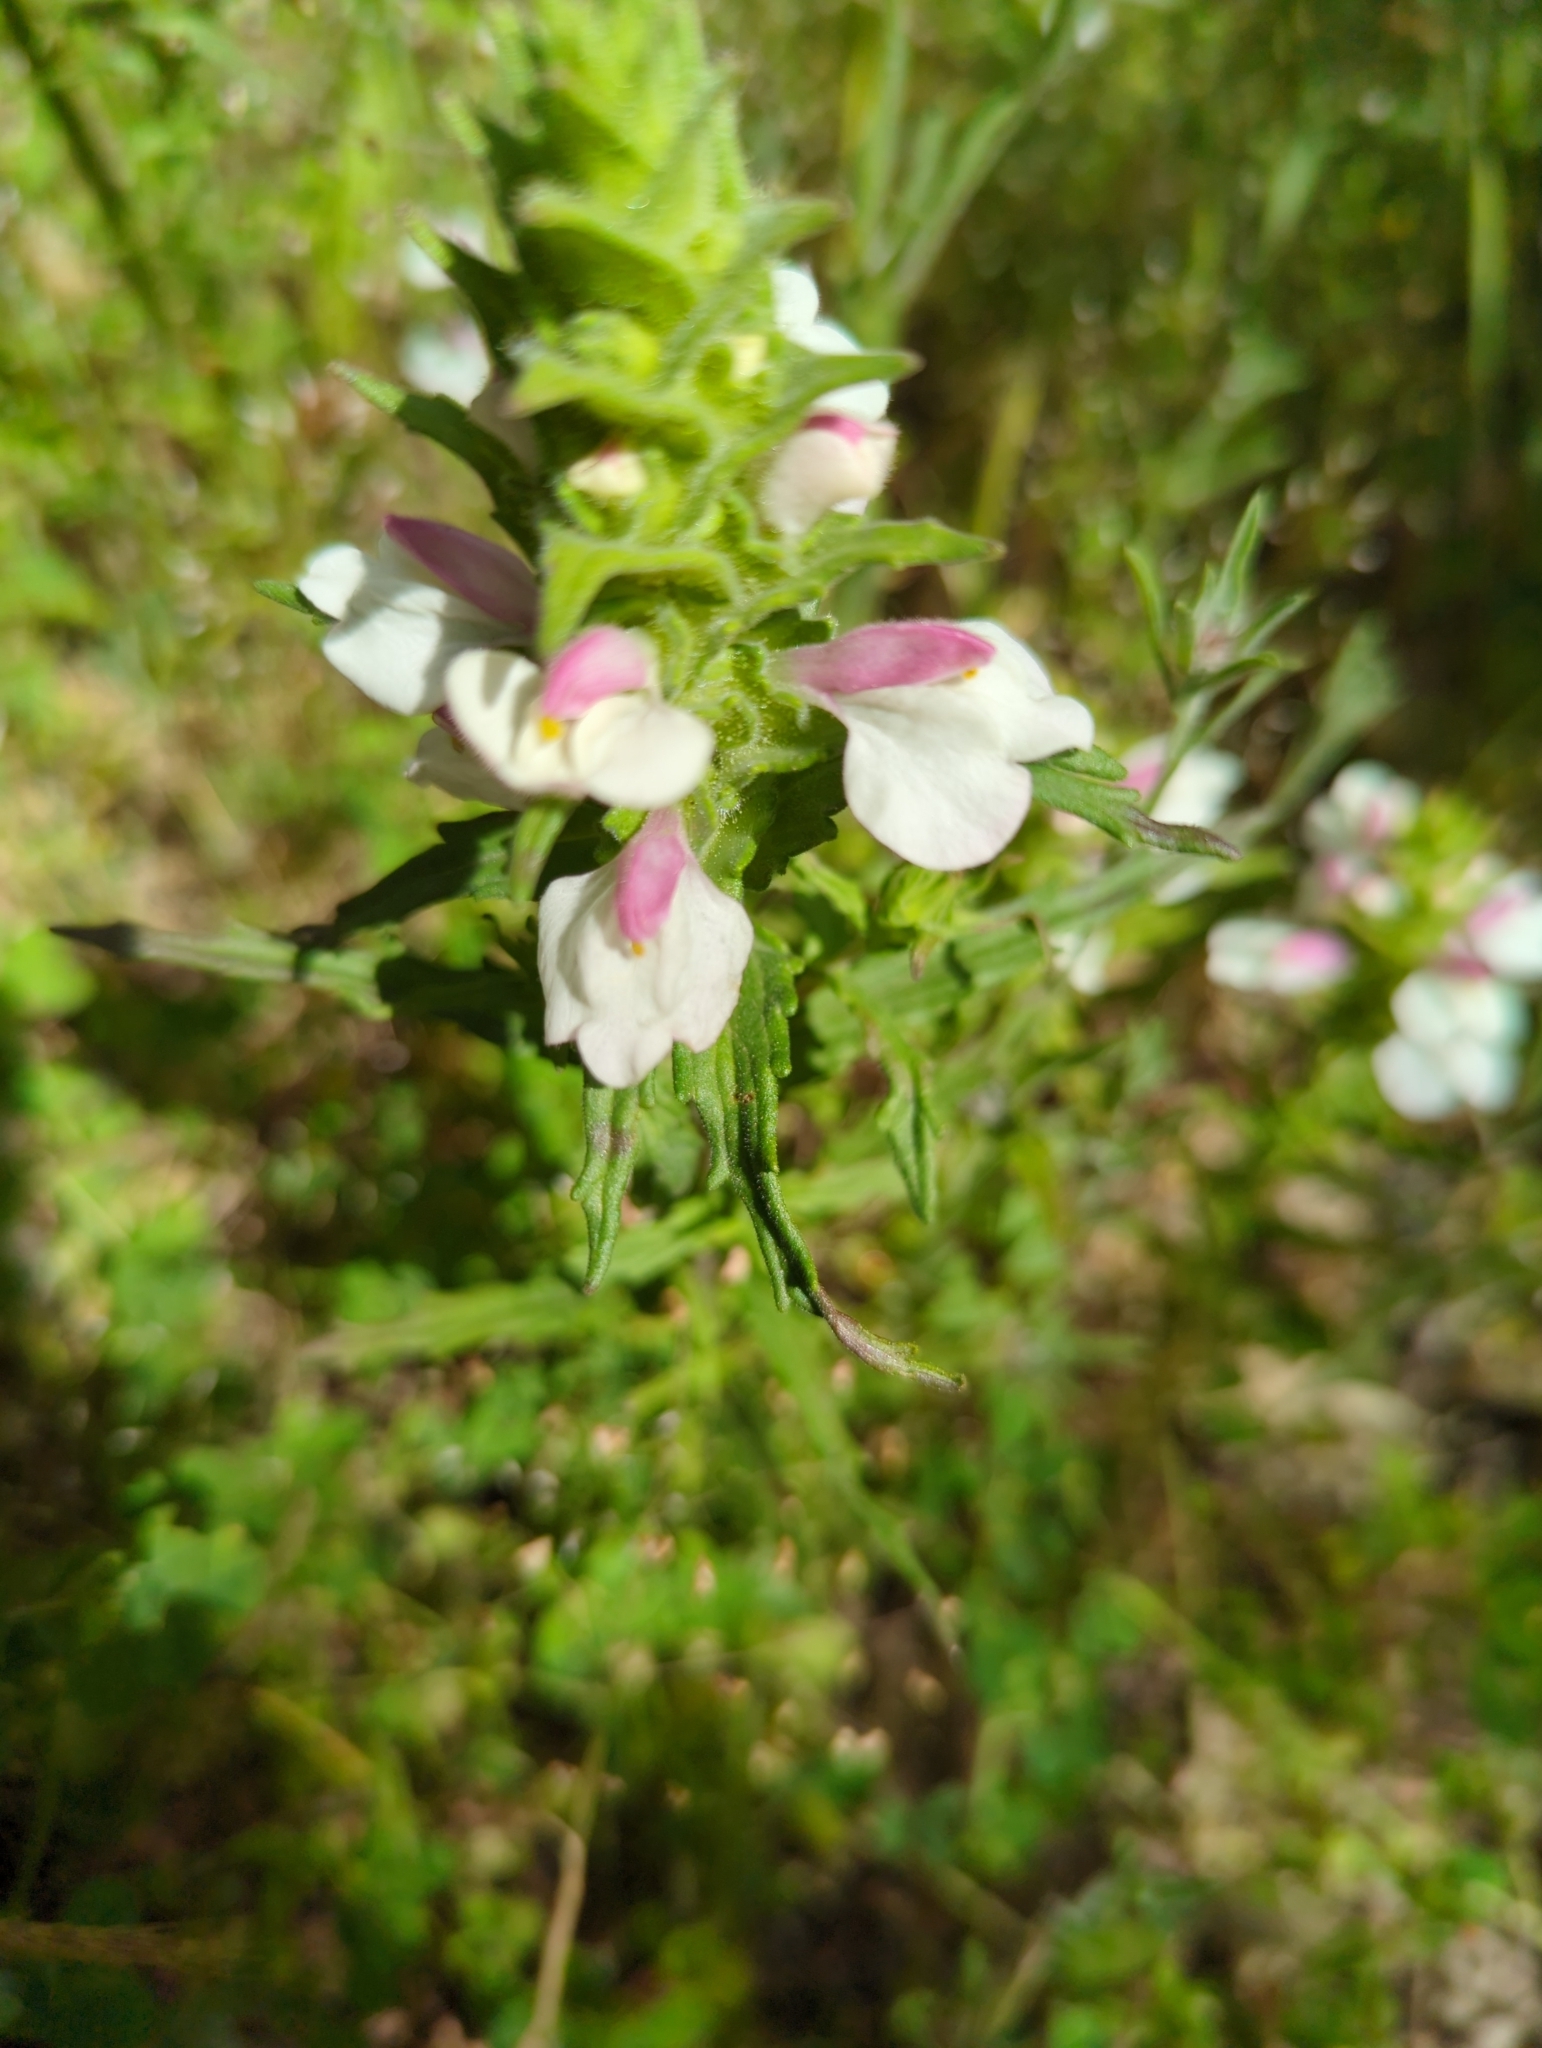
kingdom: Plantae
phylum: Tracheophyta
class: Magnoliopsida
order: Lamiales
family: Orobanchaceae
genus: Bellardia
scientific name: Bellardia trixago
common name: Mediterranean lineseed
